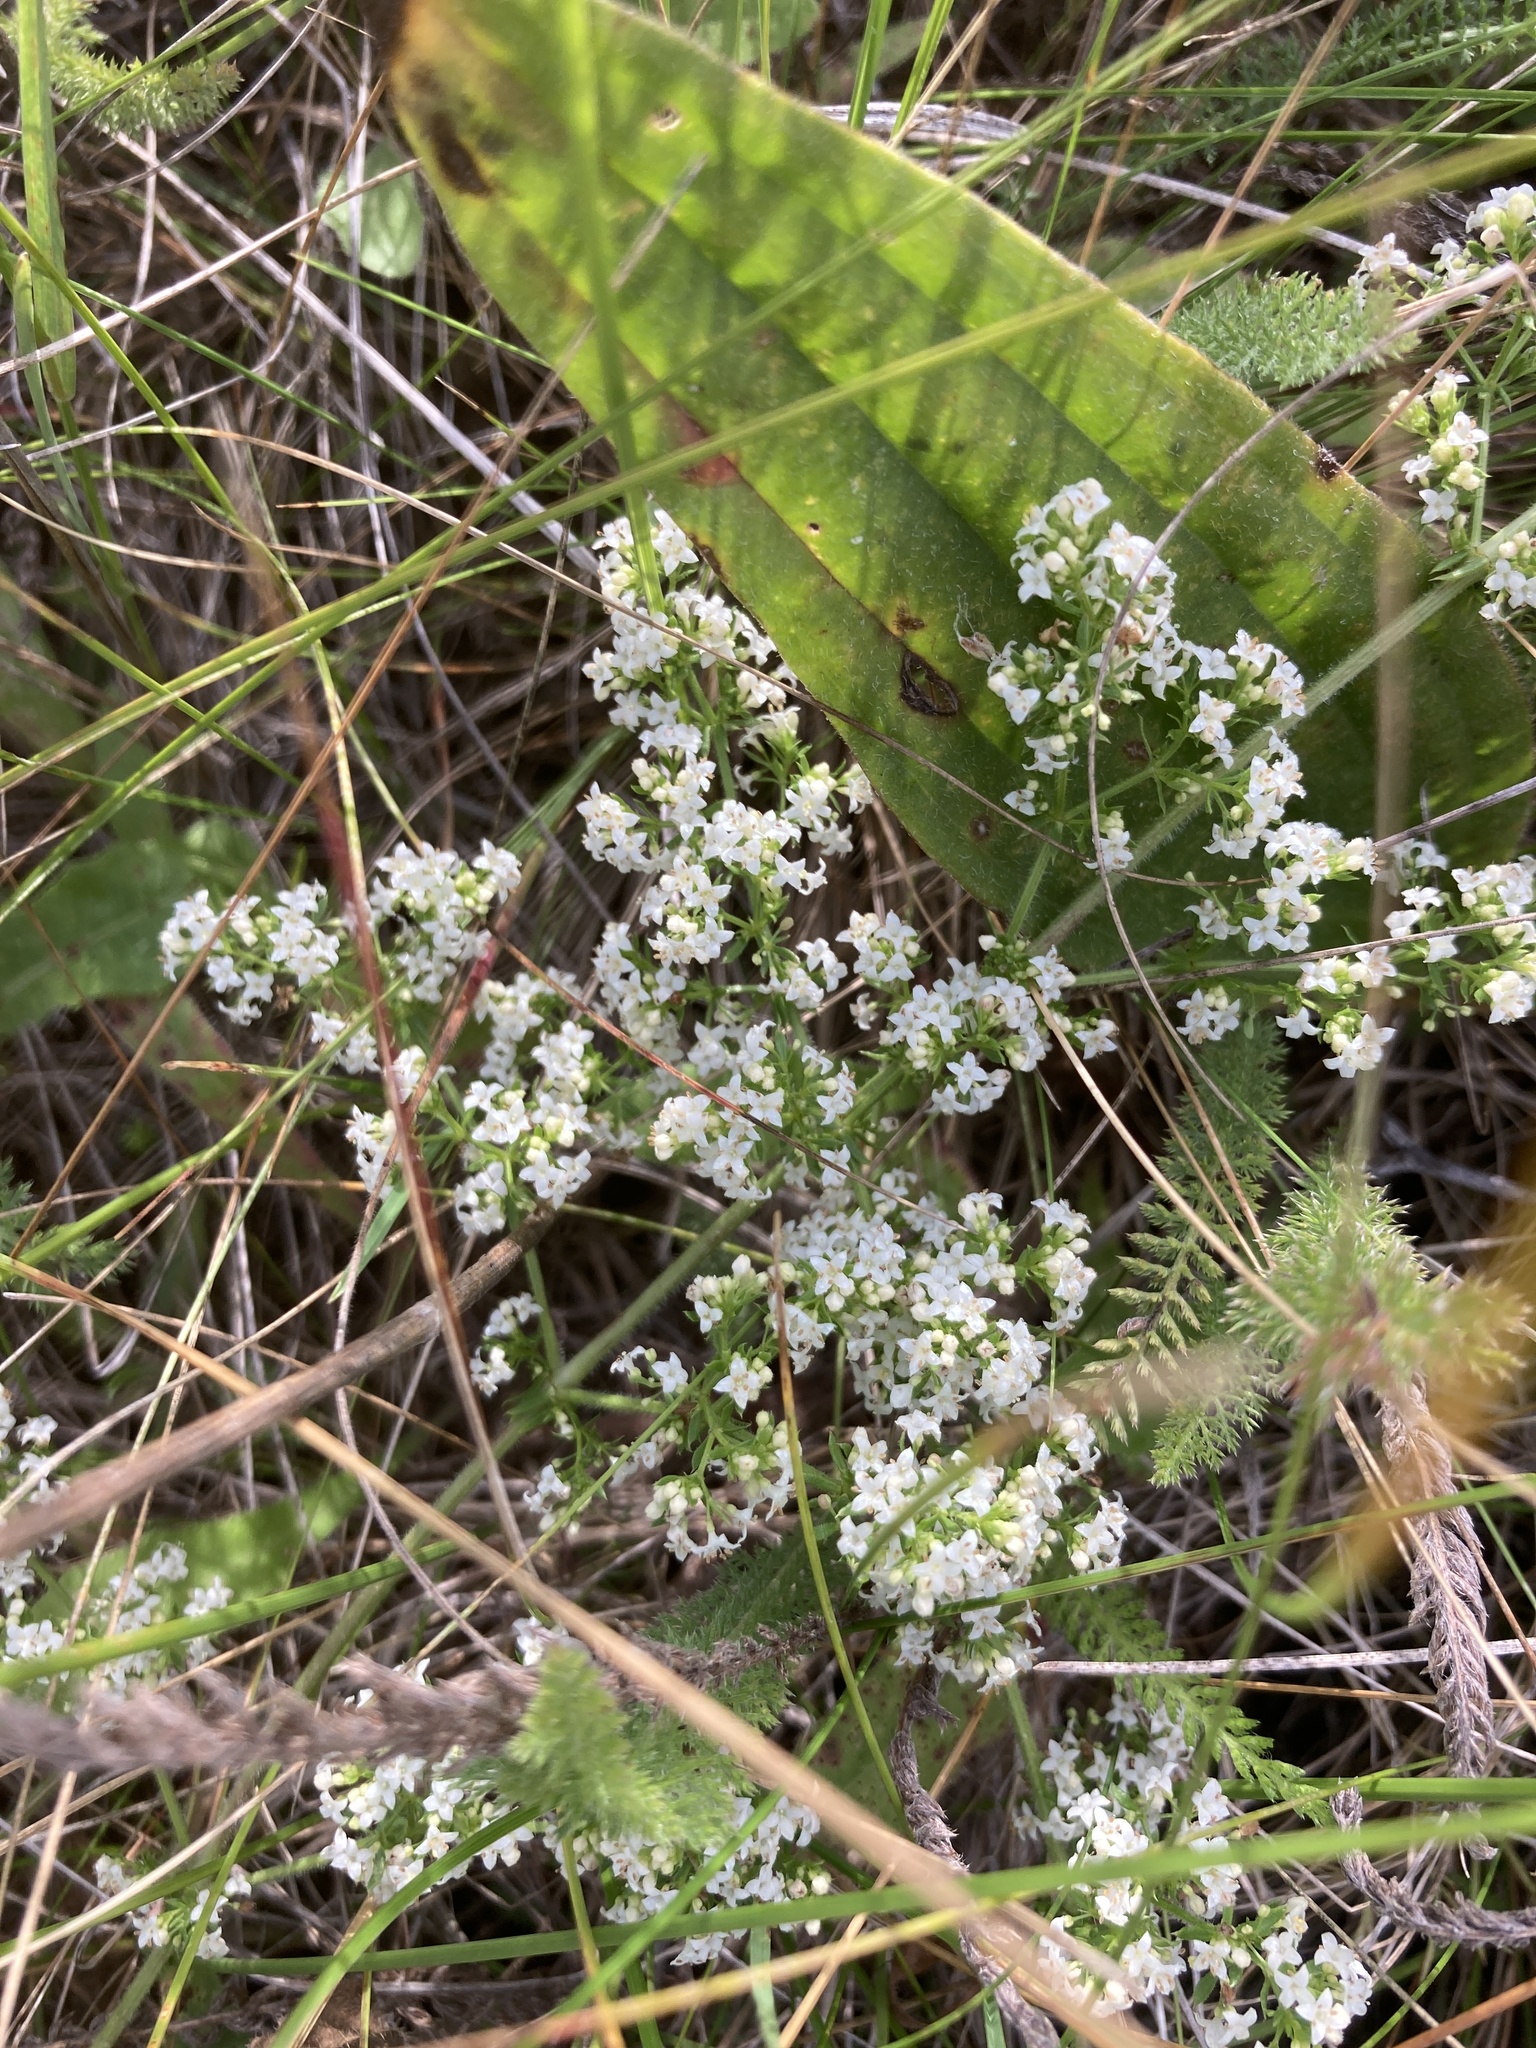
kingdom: Plantae
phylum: Tracheophyta
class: Magnoliopsida
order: Gentianales
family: Rubiaceae
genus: Galium
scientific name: Galium humifusum
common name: Spreading bedstraw
